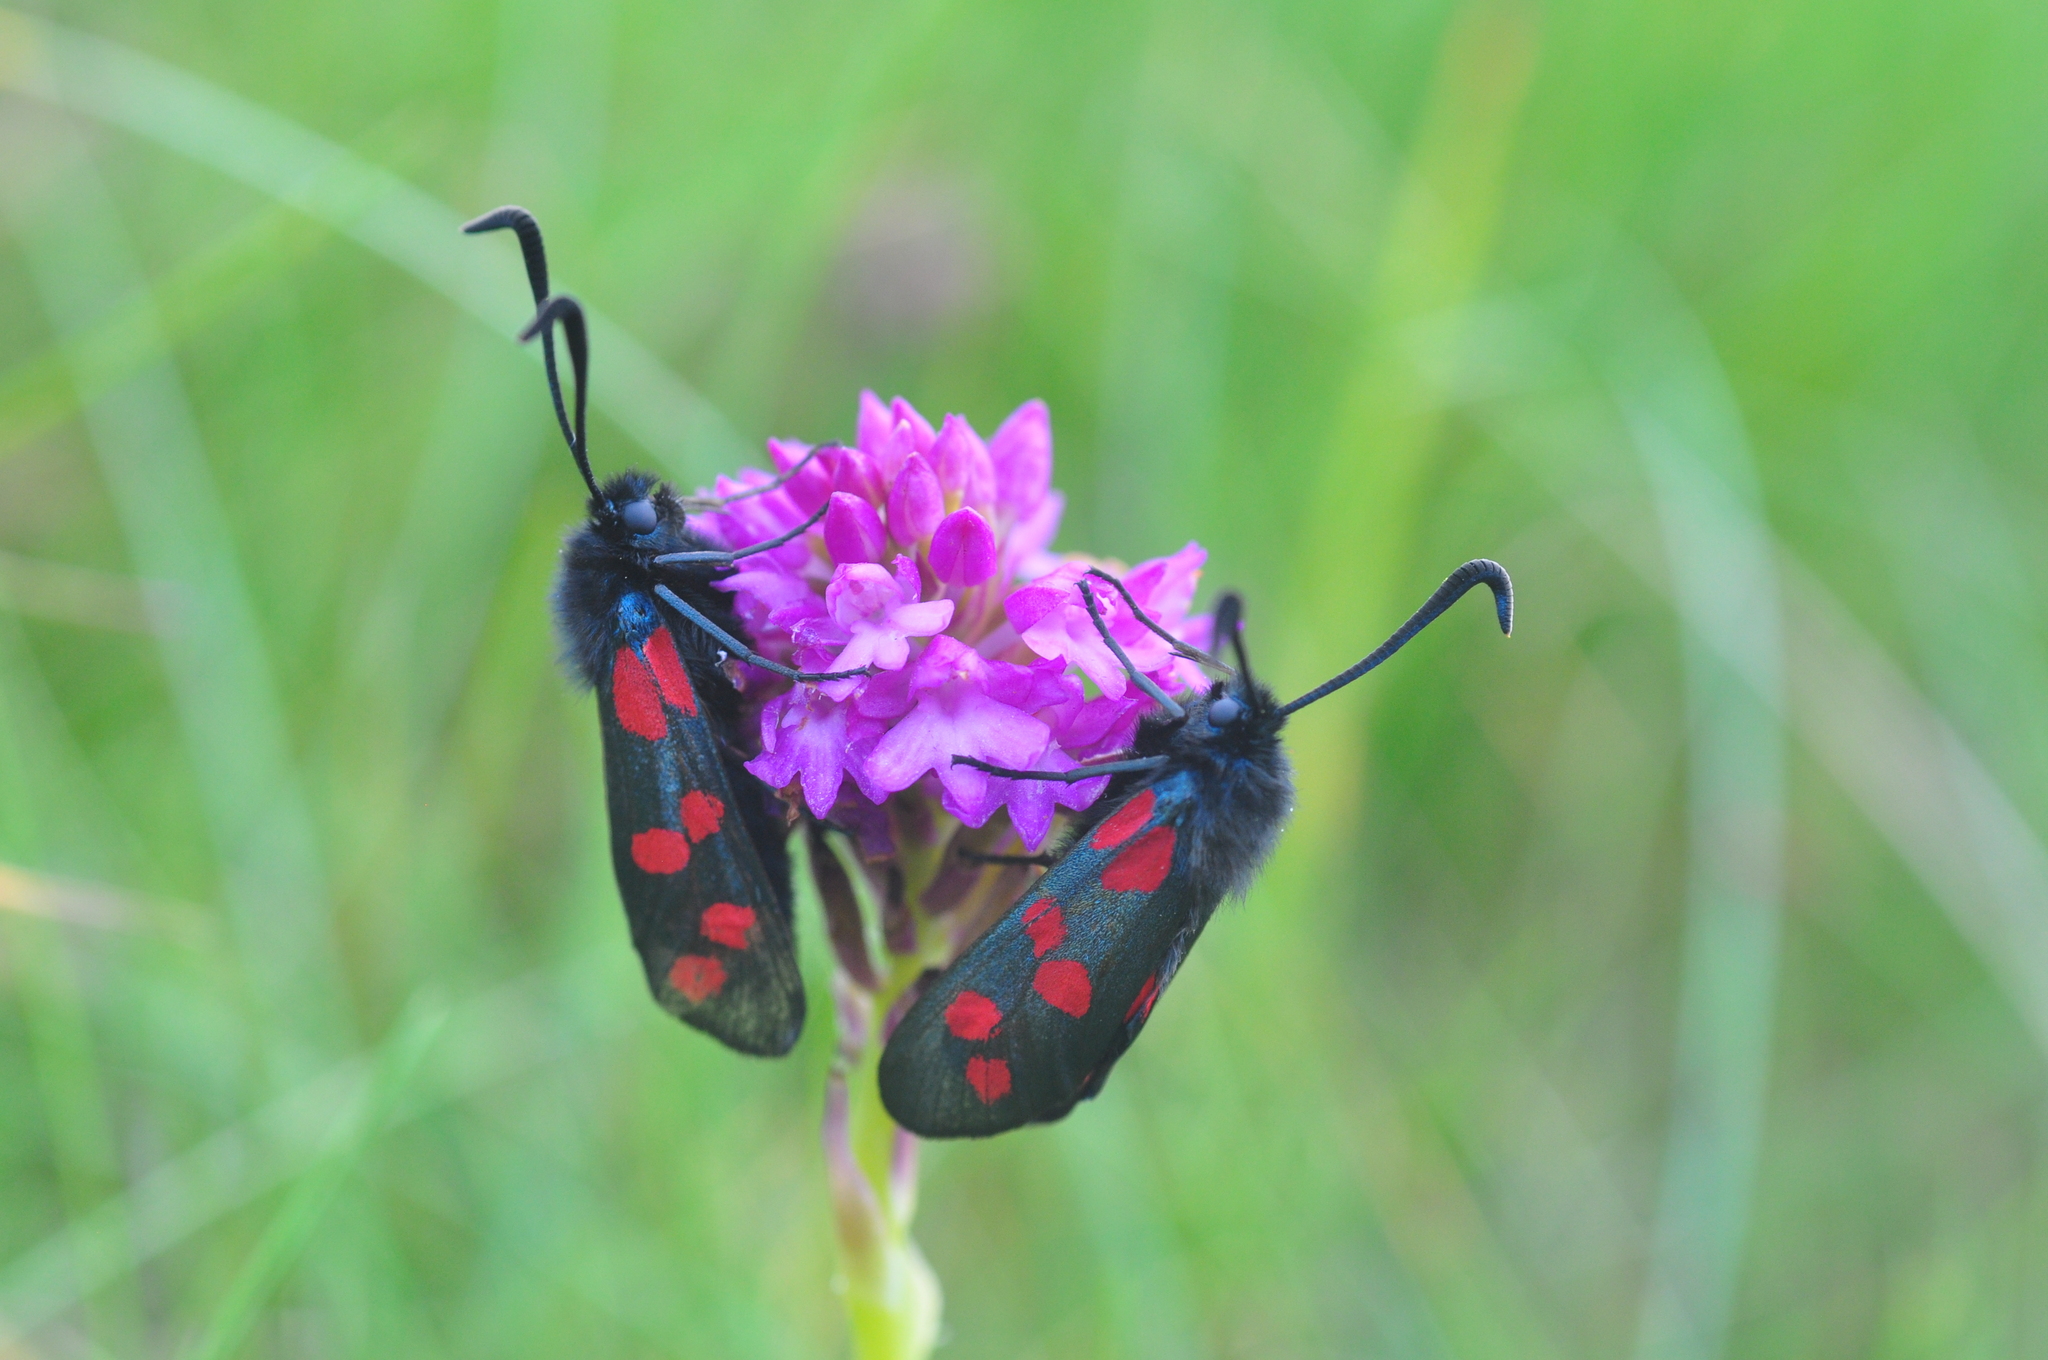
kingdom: Plantae
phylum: Tracheophyta
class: Liliopsida
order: Asparagales
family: Orchidaceae
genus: Anacamptis
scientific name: Anacamptis pyramidalis
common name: Pyramidal orchid
